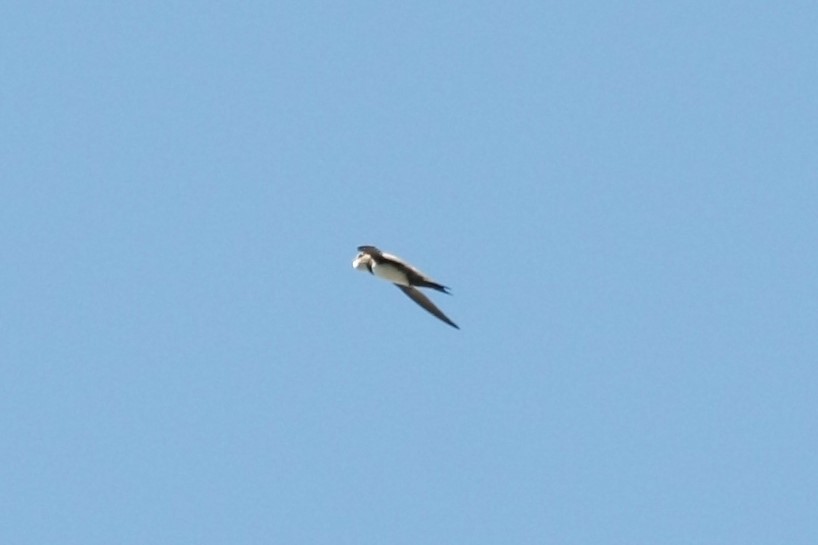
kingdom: Animalia
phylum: Chordata
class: Aves
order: Apodiformes
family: Apodidae
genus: Tachymarptis
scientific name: Tachymarptis melba
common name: Alpine swift
